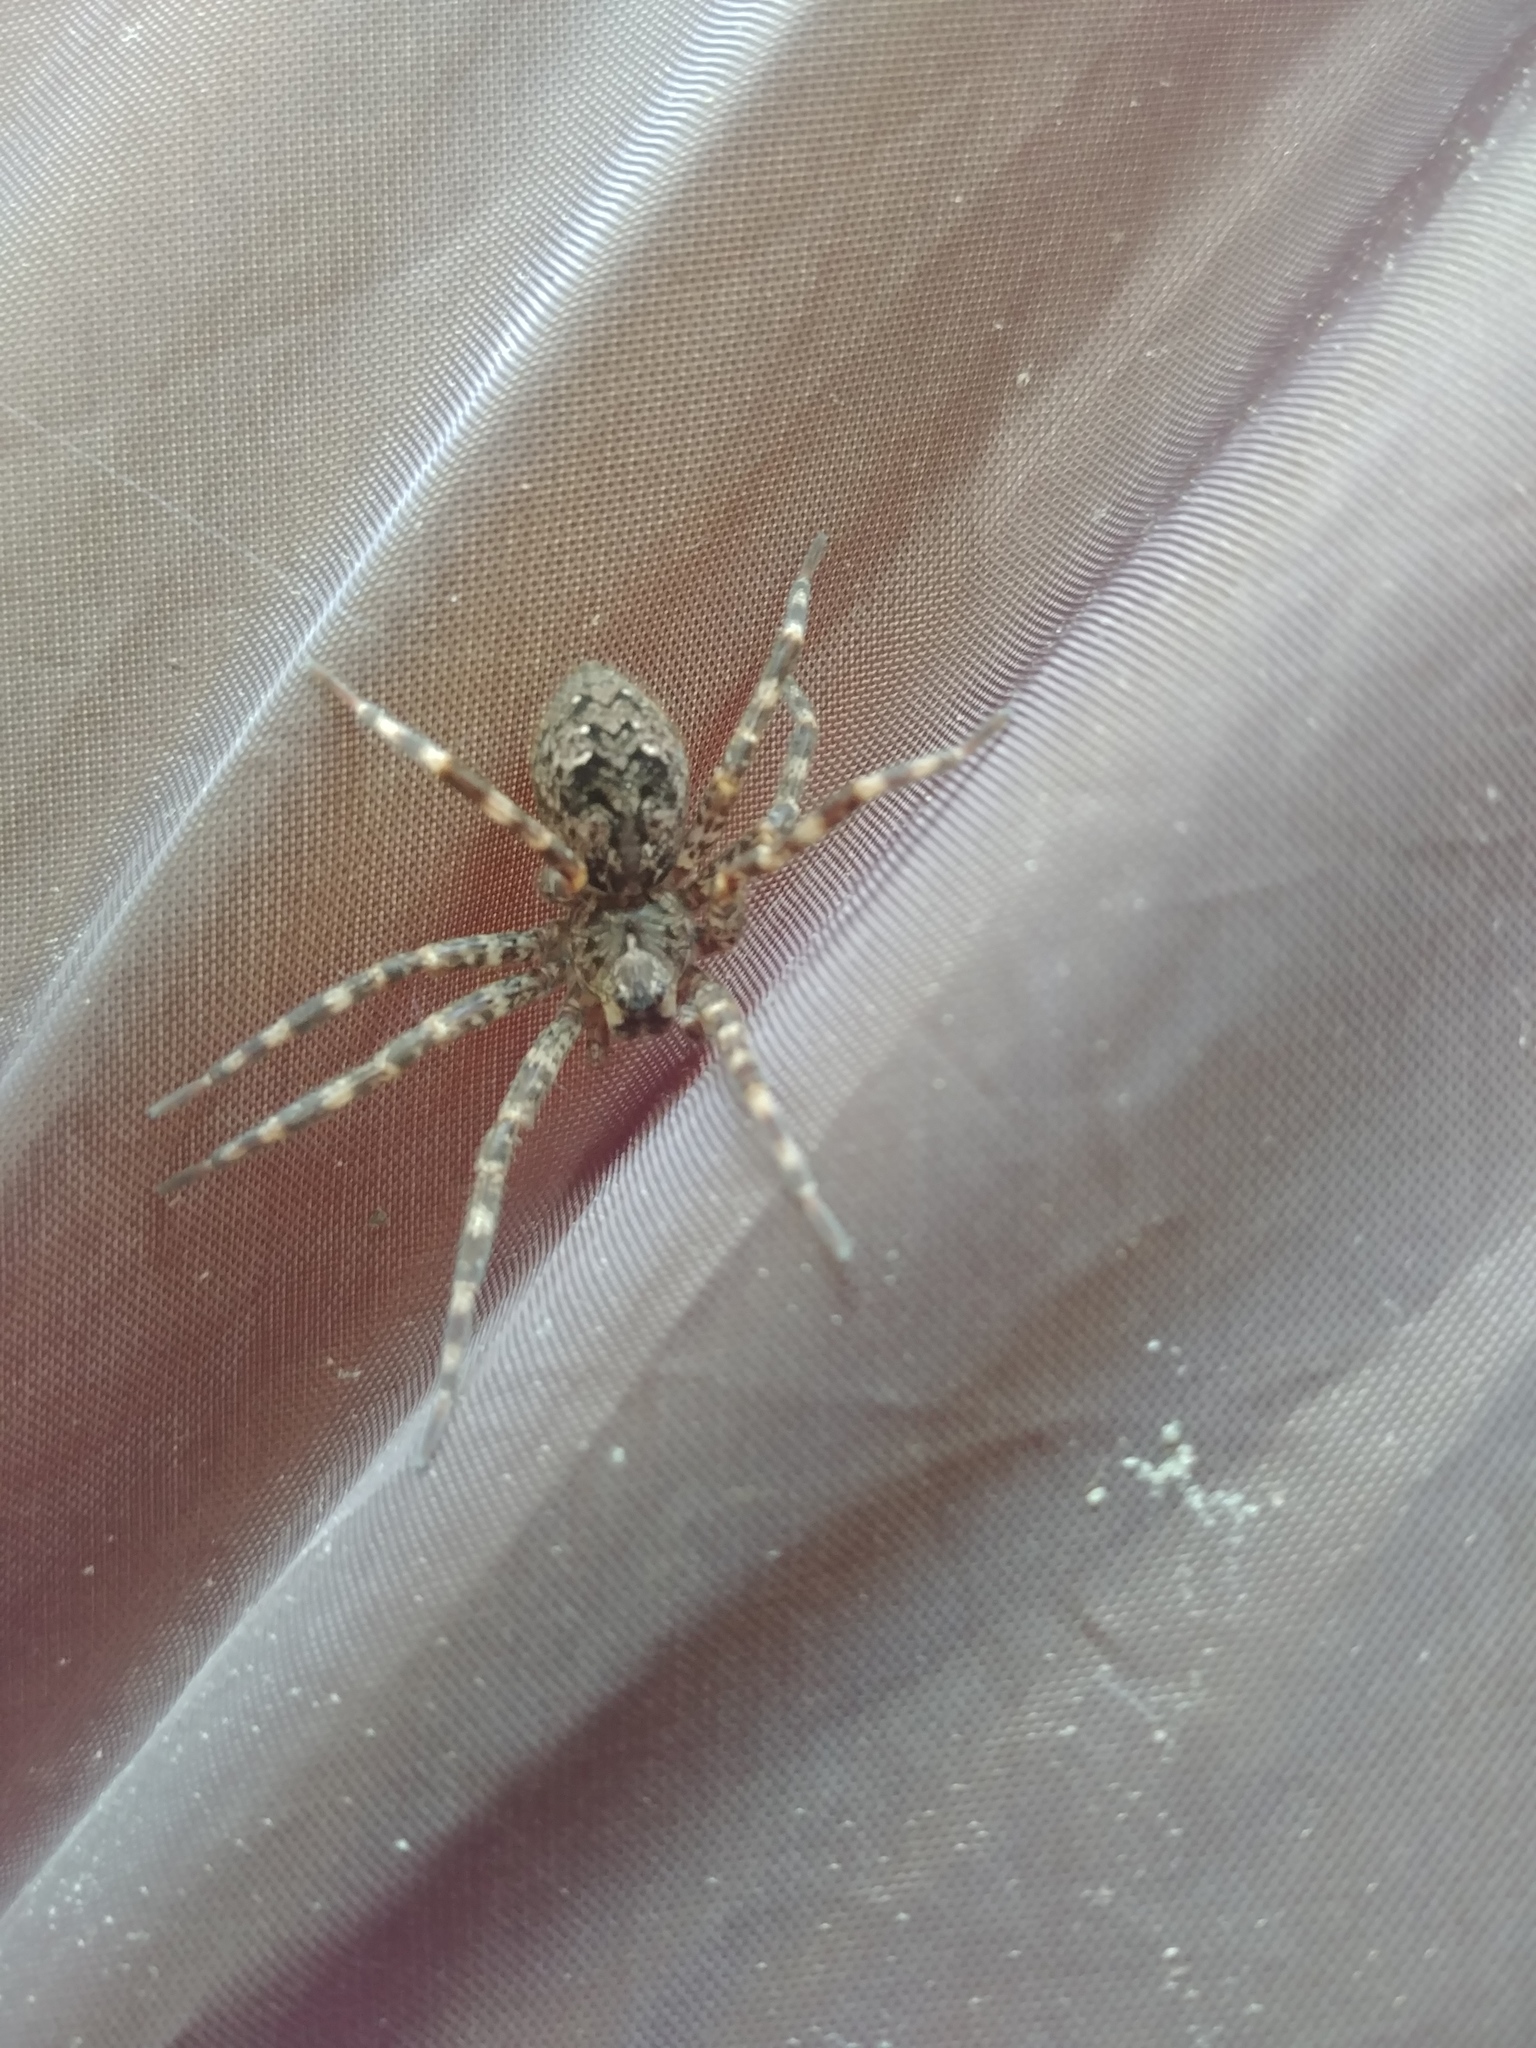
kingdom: Animalia
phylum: Arthropoda
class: Arachnida
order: Araneae
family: Pisauridae
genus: Dolomedes
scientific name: Dolomedes tenebrosus
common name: Dark fishing spider
